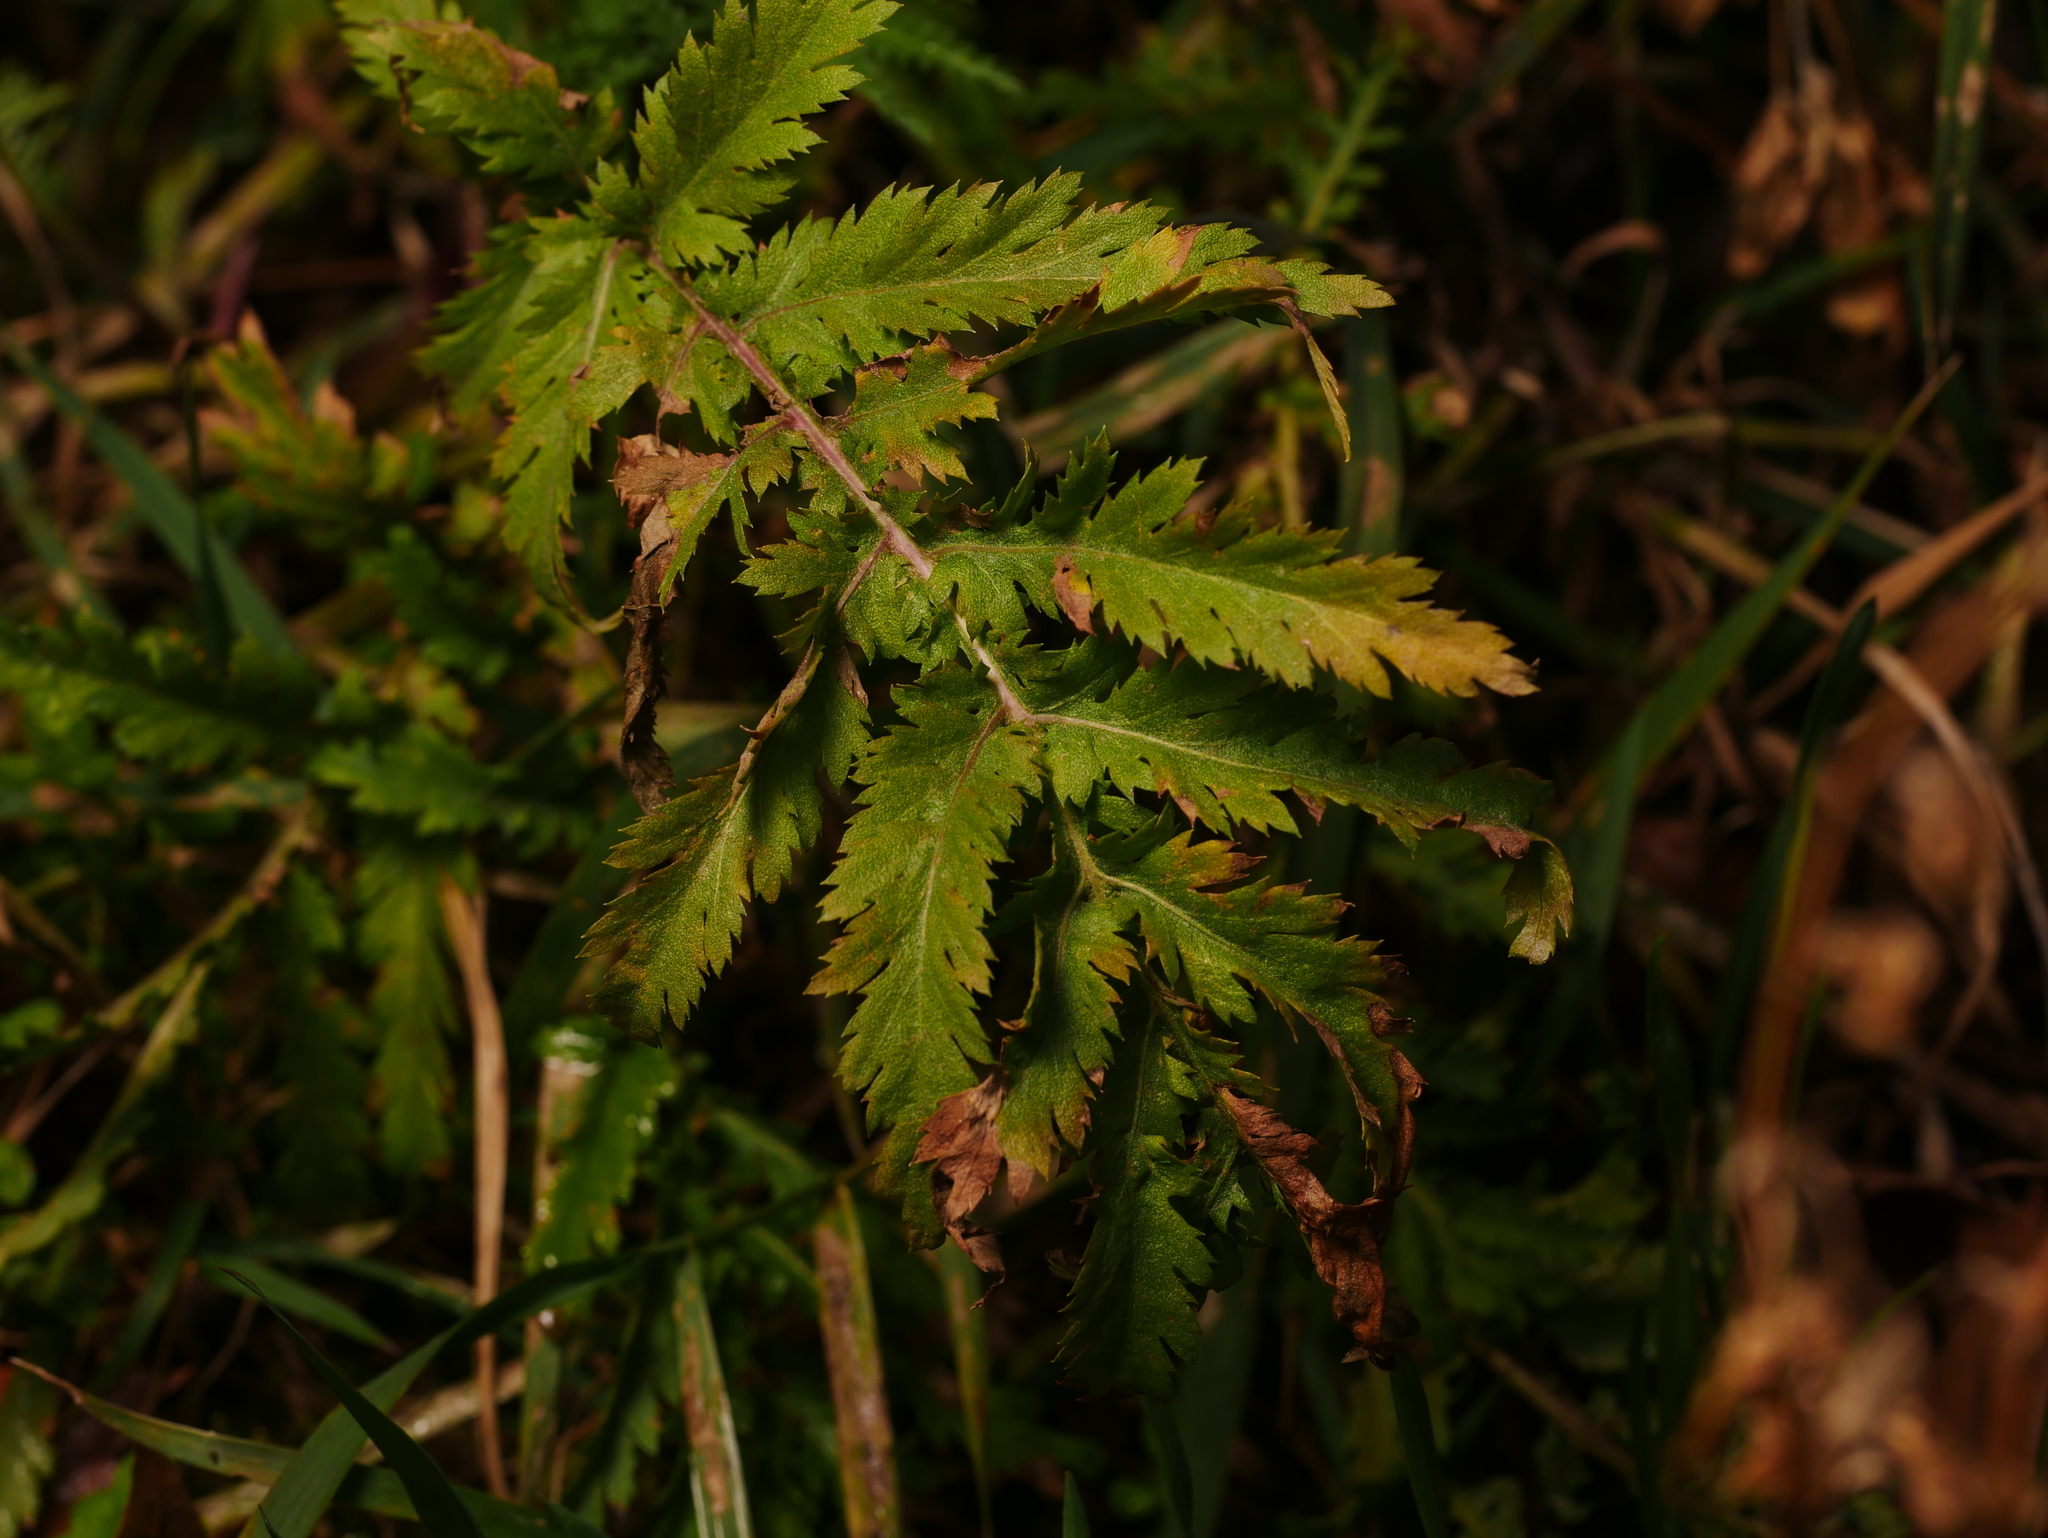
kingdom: Plantae
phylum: Tracheophyta
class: Magnoliopsida
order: Asterales
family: Asteraceae
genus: Tanacetum
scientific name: Tanacetum vulgare
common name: Common tansy
